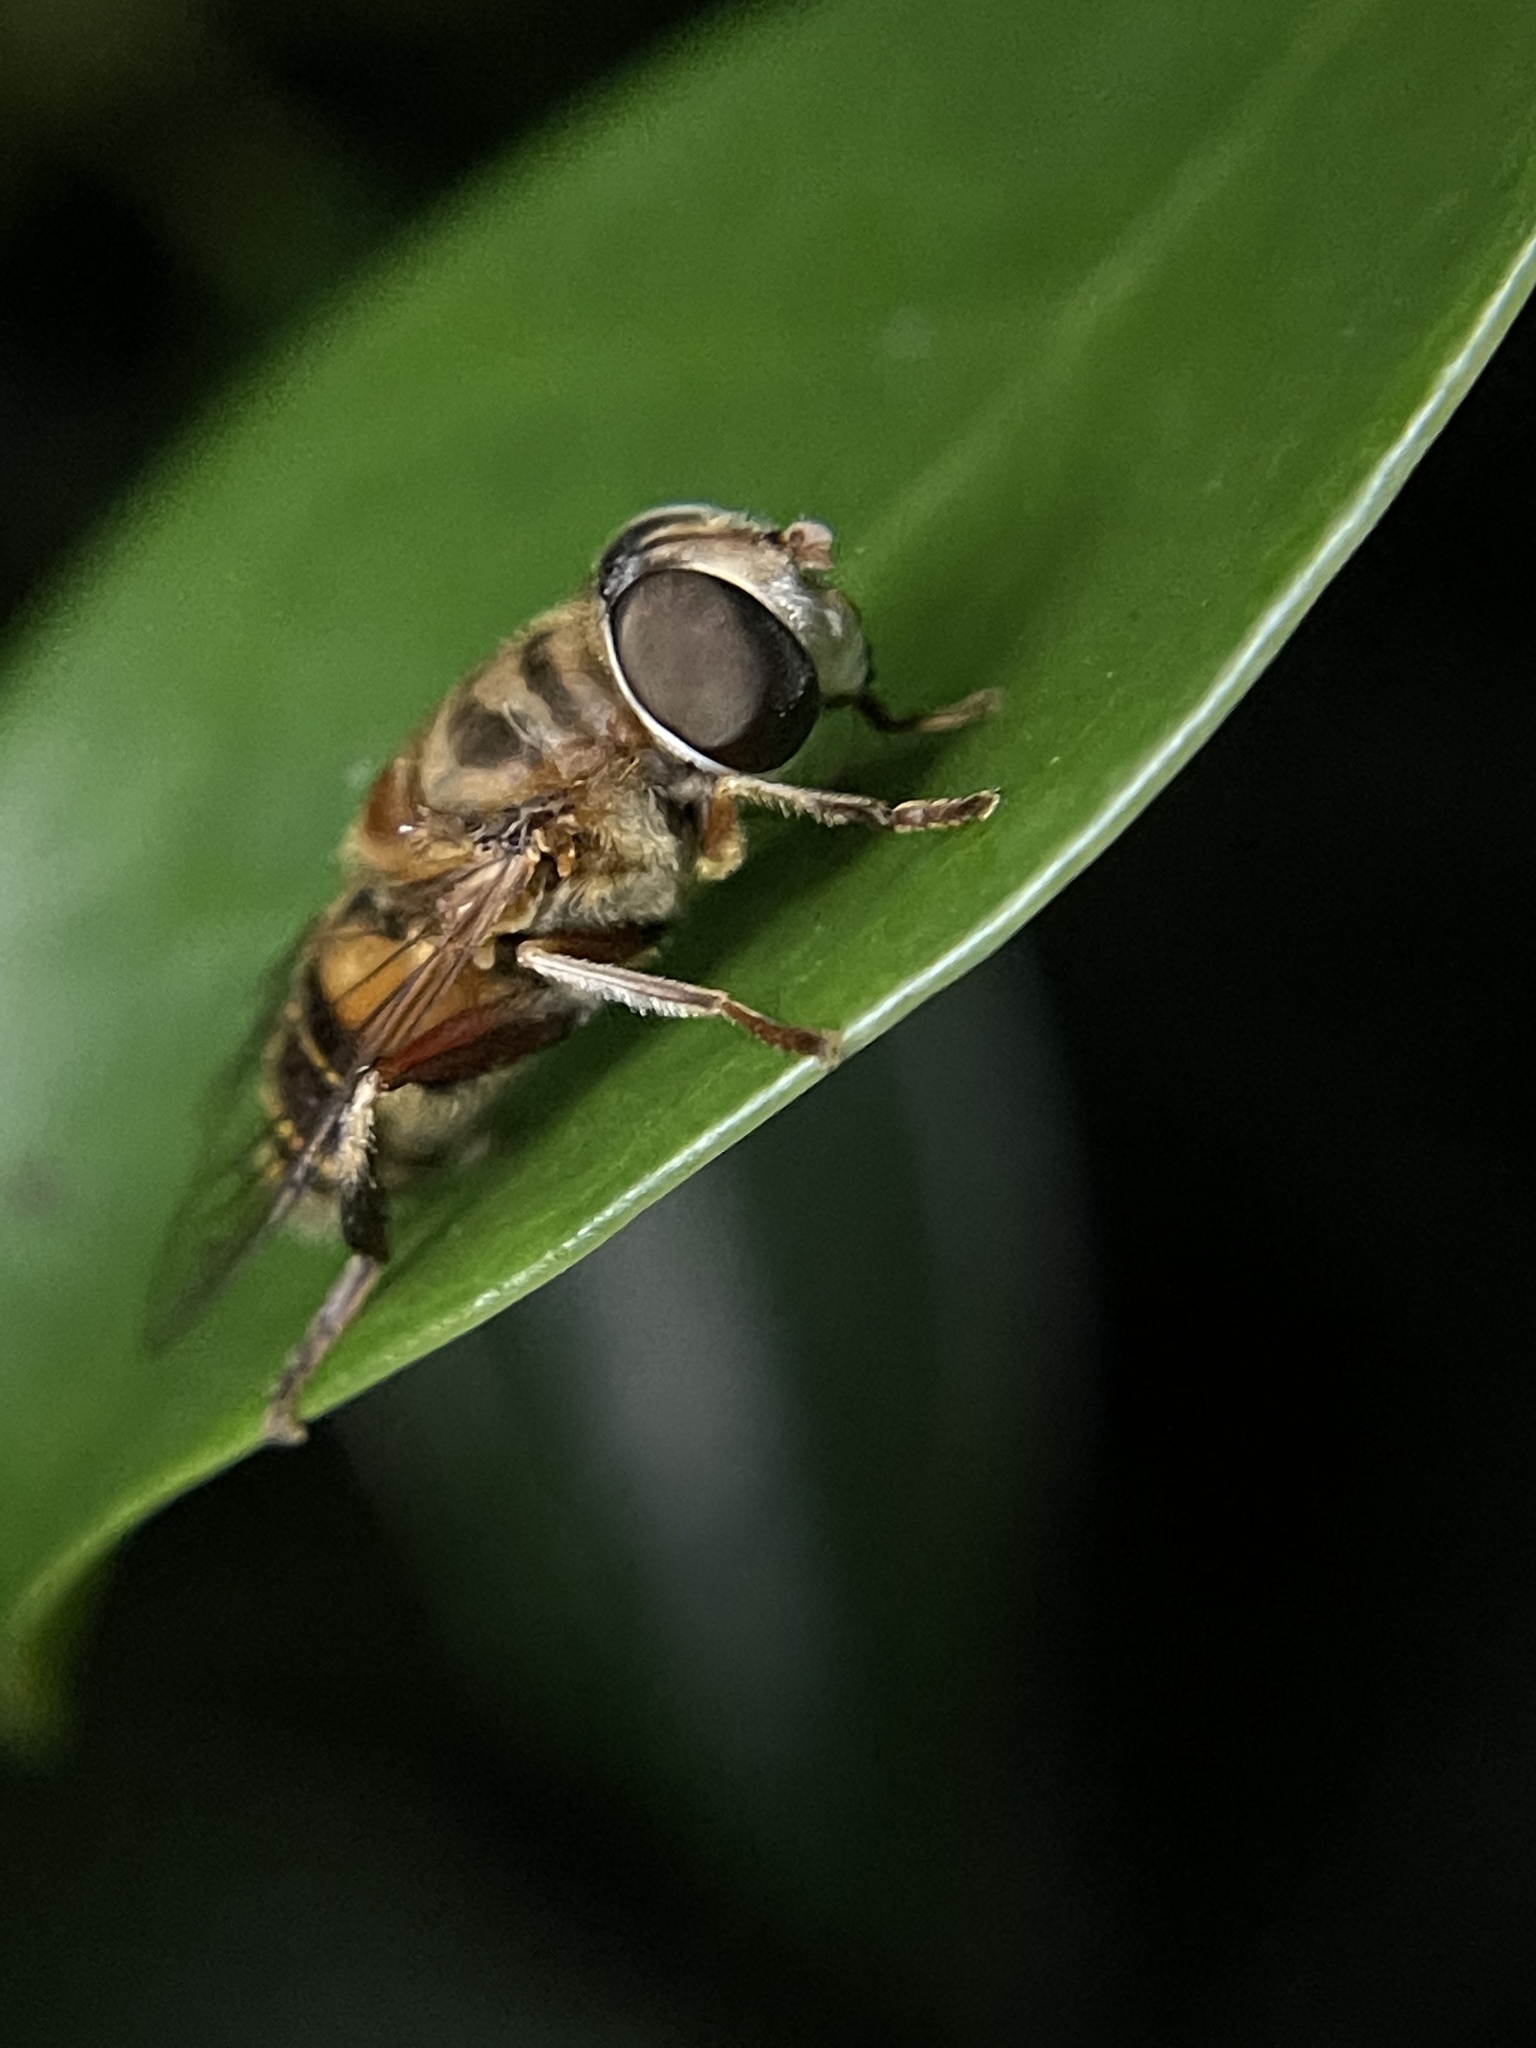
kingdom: Animalia
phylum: Arthropoda
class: Insecta
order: Diptera
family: Syrphidae
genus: Palpada
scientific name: Palpada vinetorum
